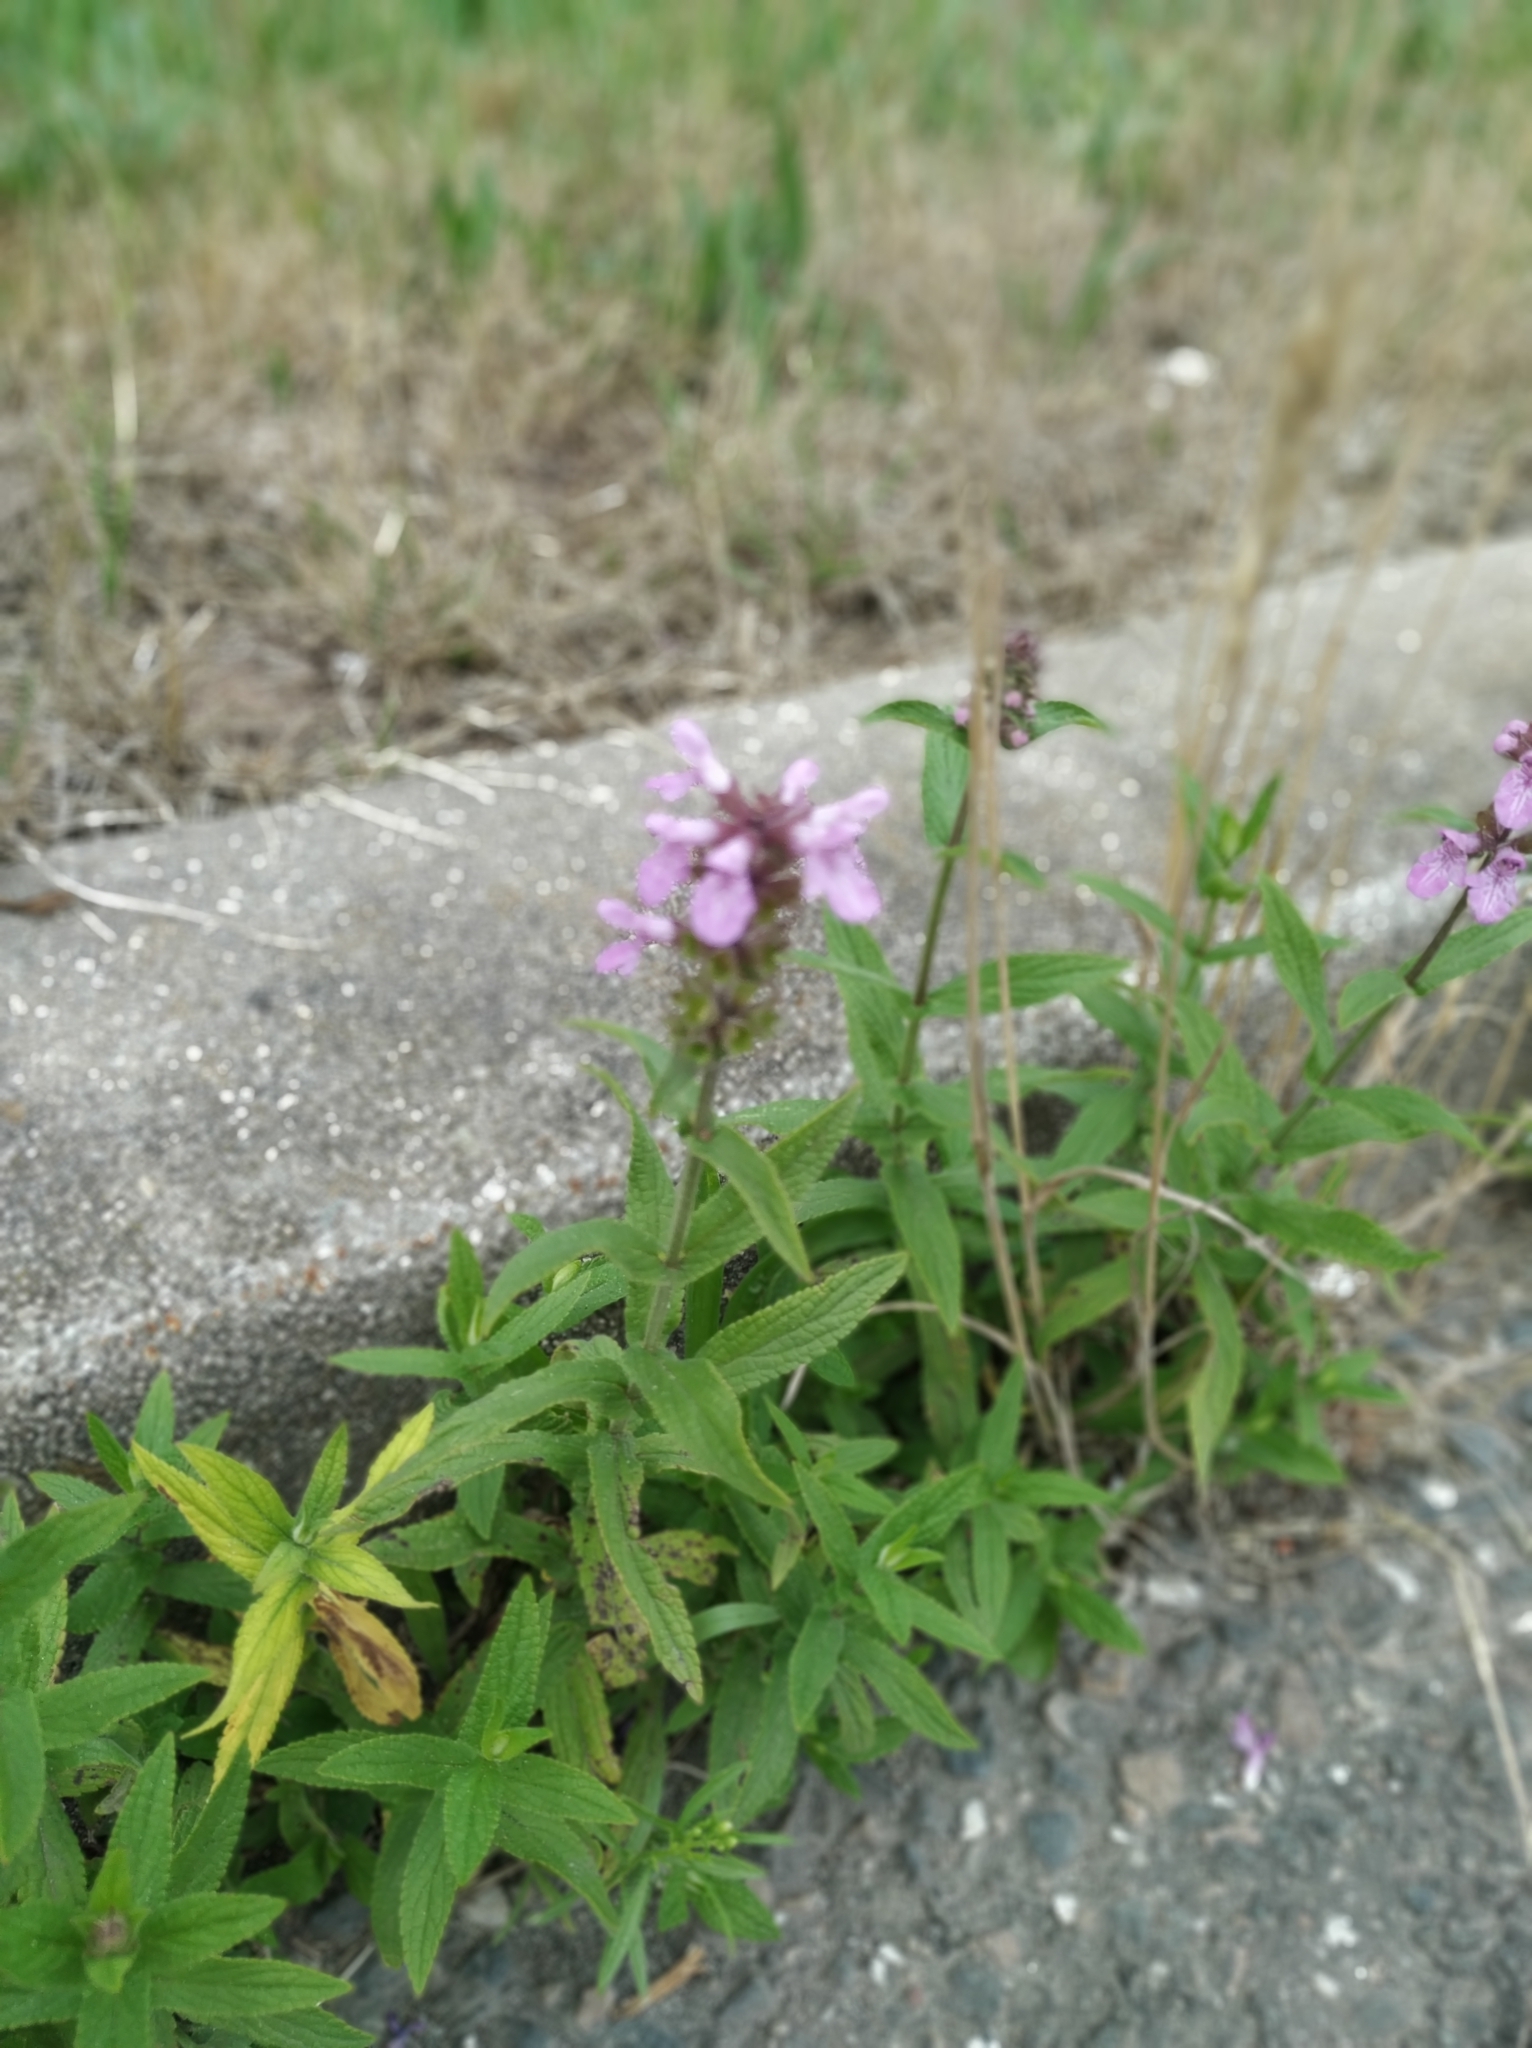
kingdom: Plantae
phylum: Tracheophyta
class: Magnoliopsida
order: Lamiales
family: Lamiaceae
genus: Stachys
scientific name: Stachys palustris
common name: Marsh woundwort
